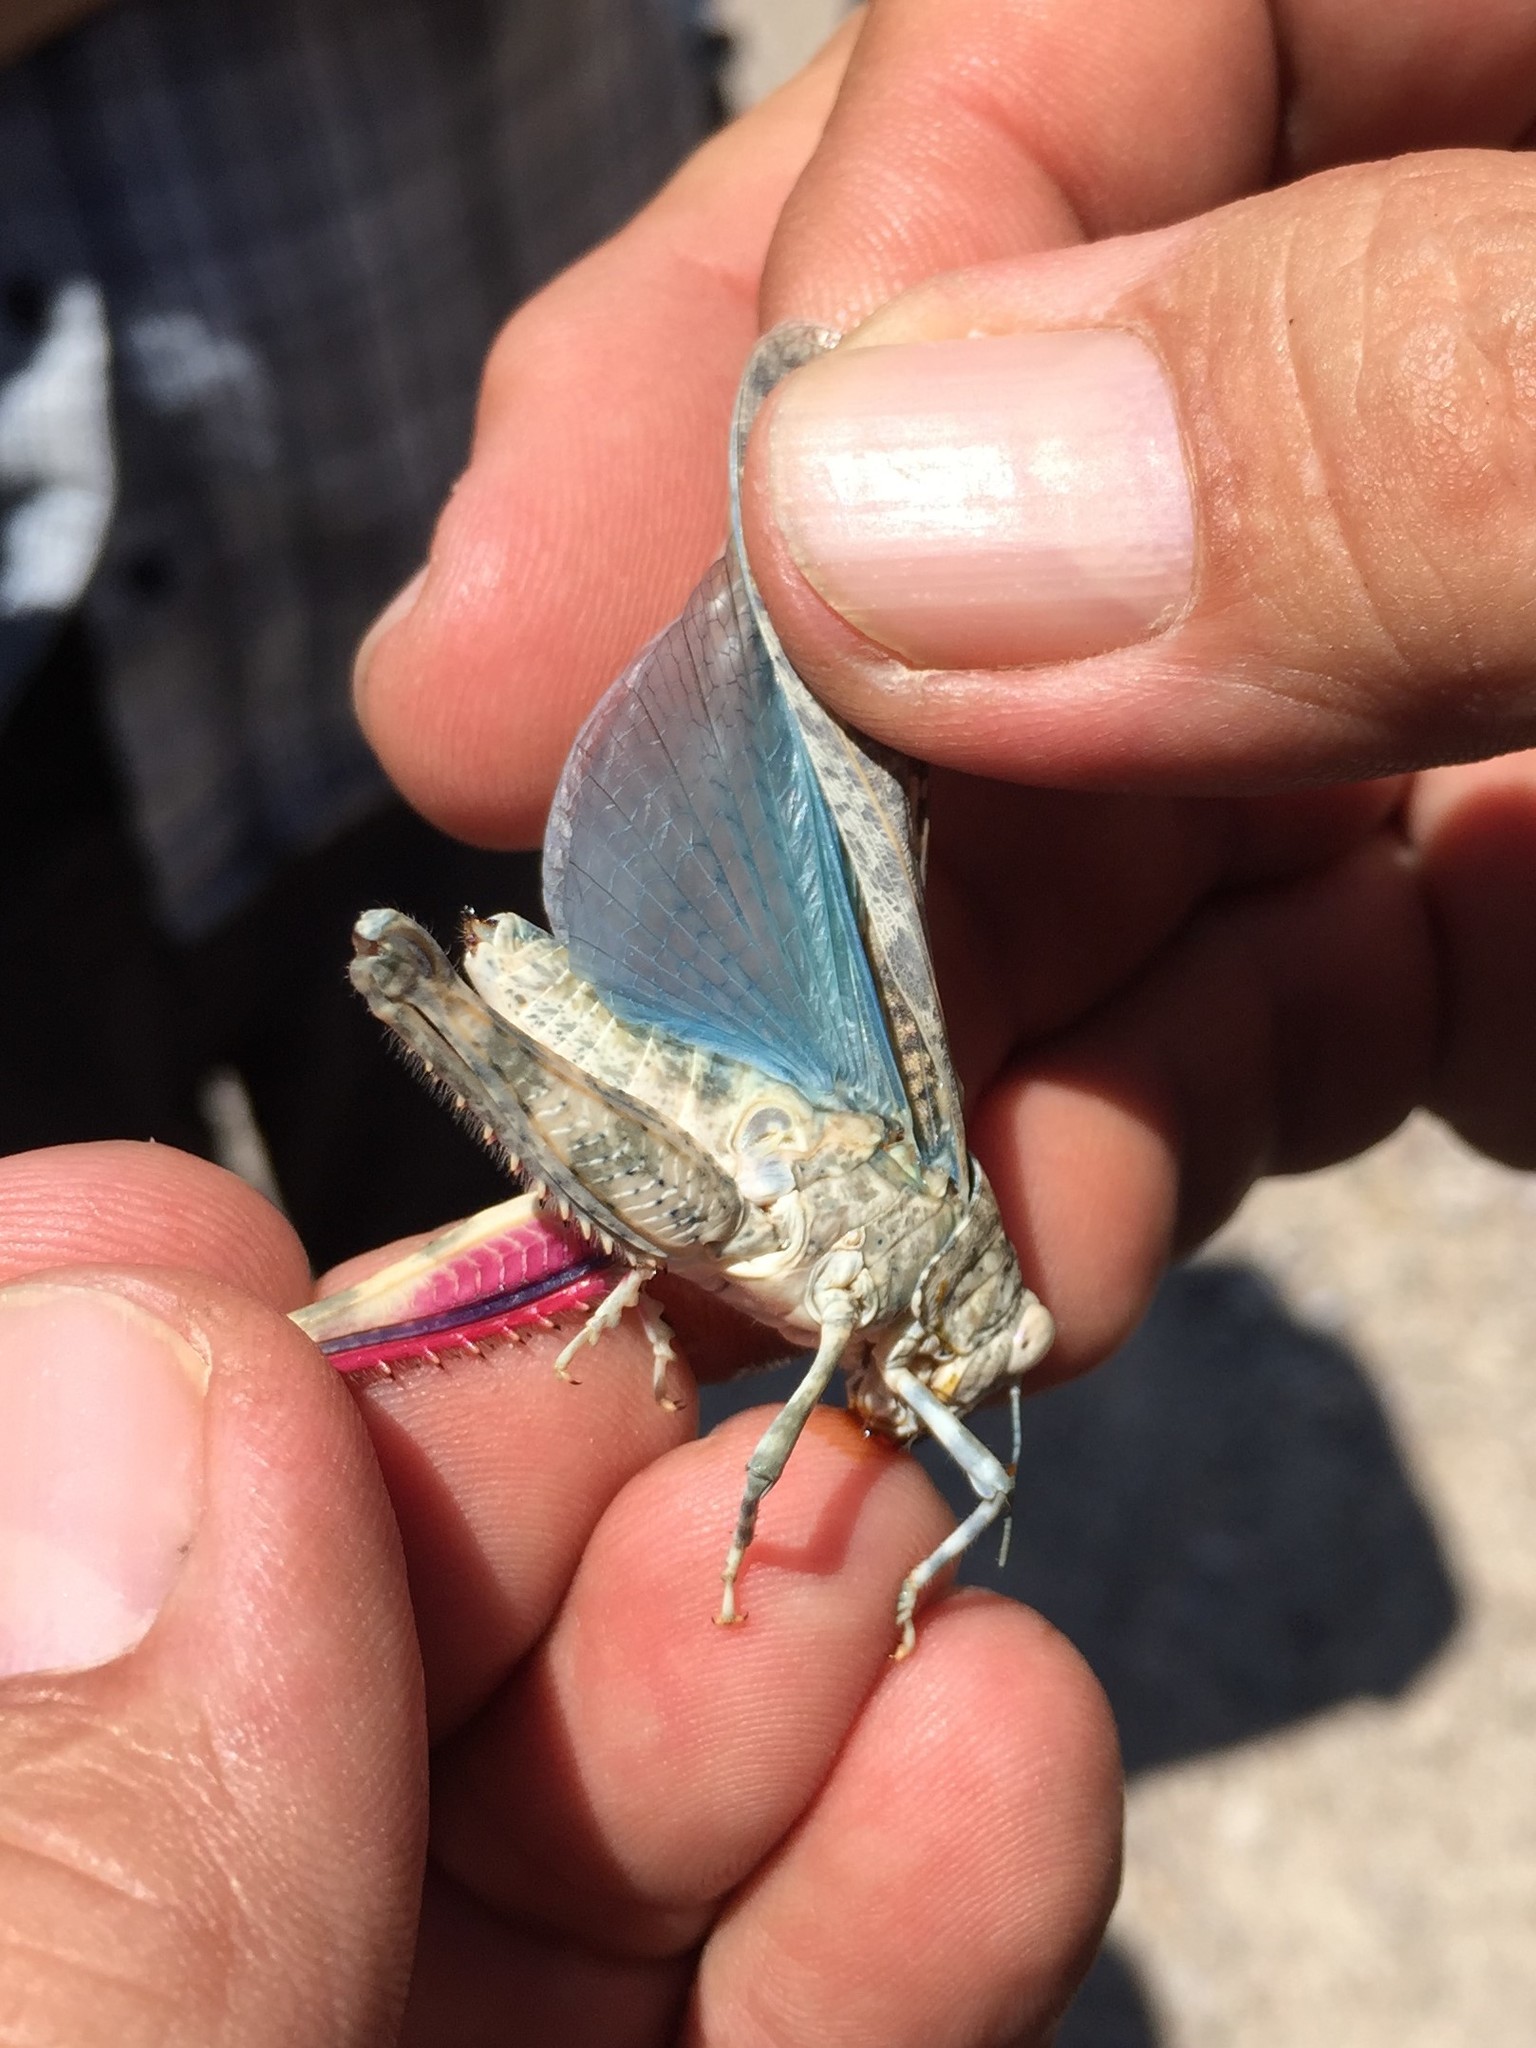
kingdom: Animalia
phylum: Arthropoda
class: Insecta
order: Orthoptera
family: Romaleidae
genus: Tytthotyle
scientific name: Tytthotyle maculata
